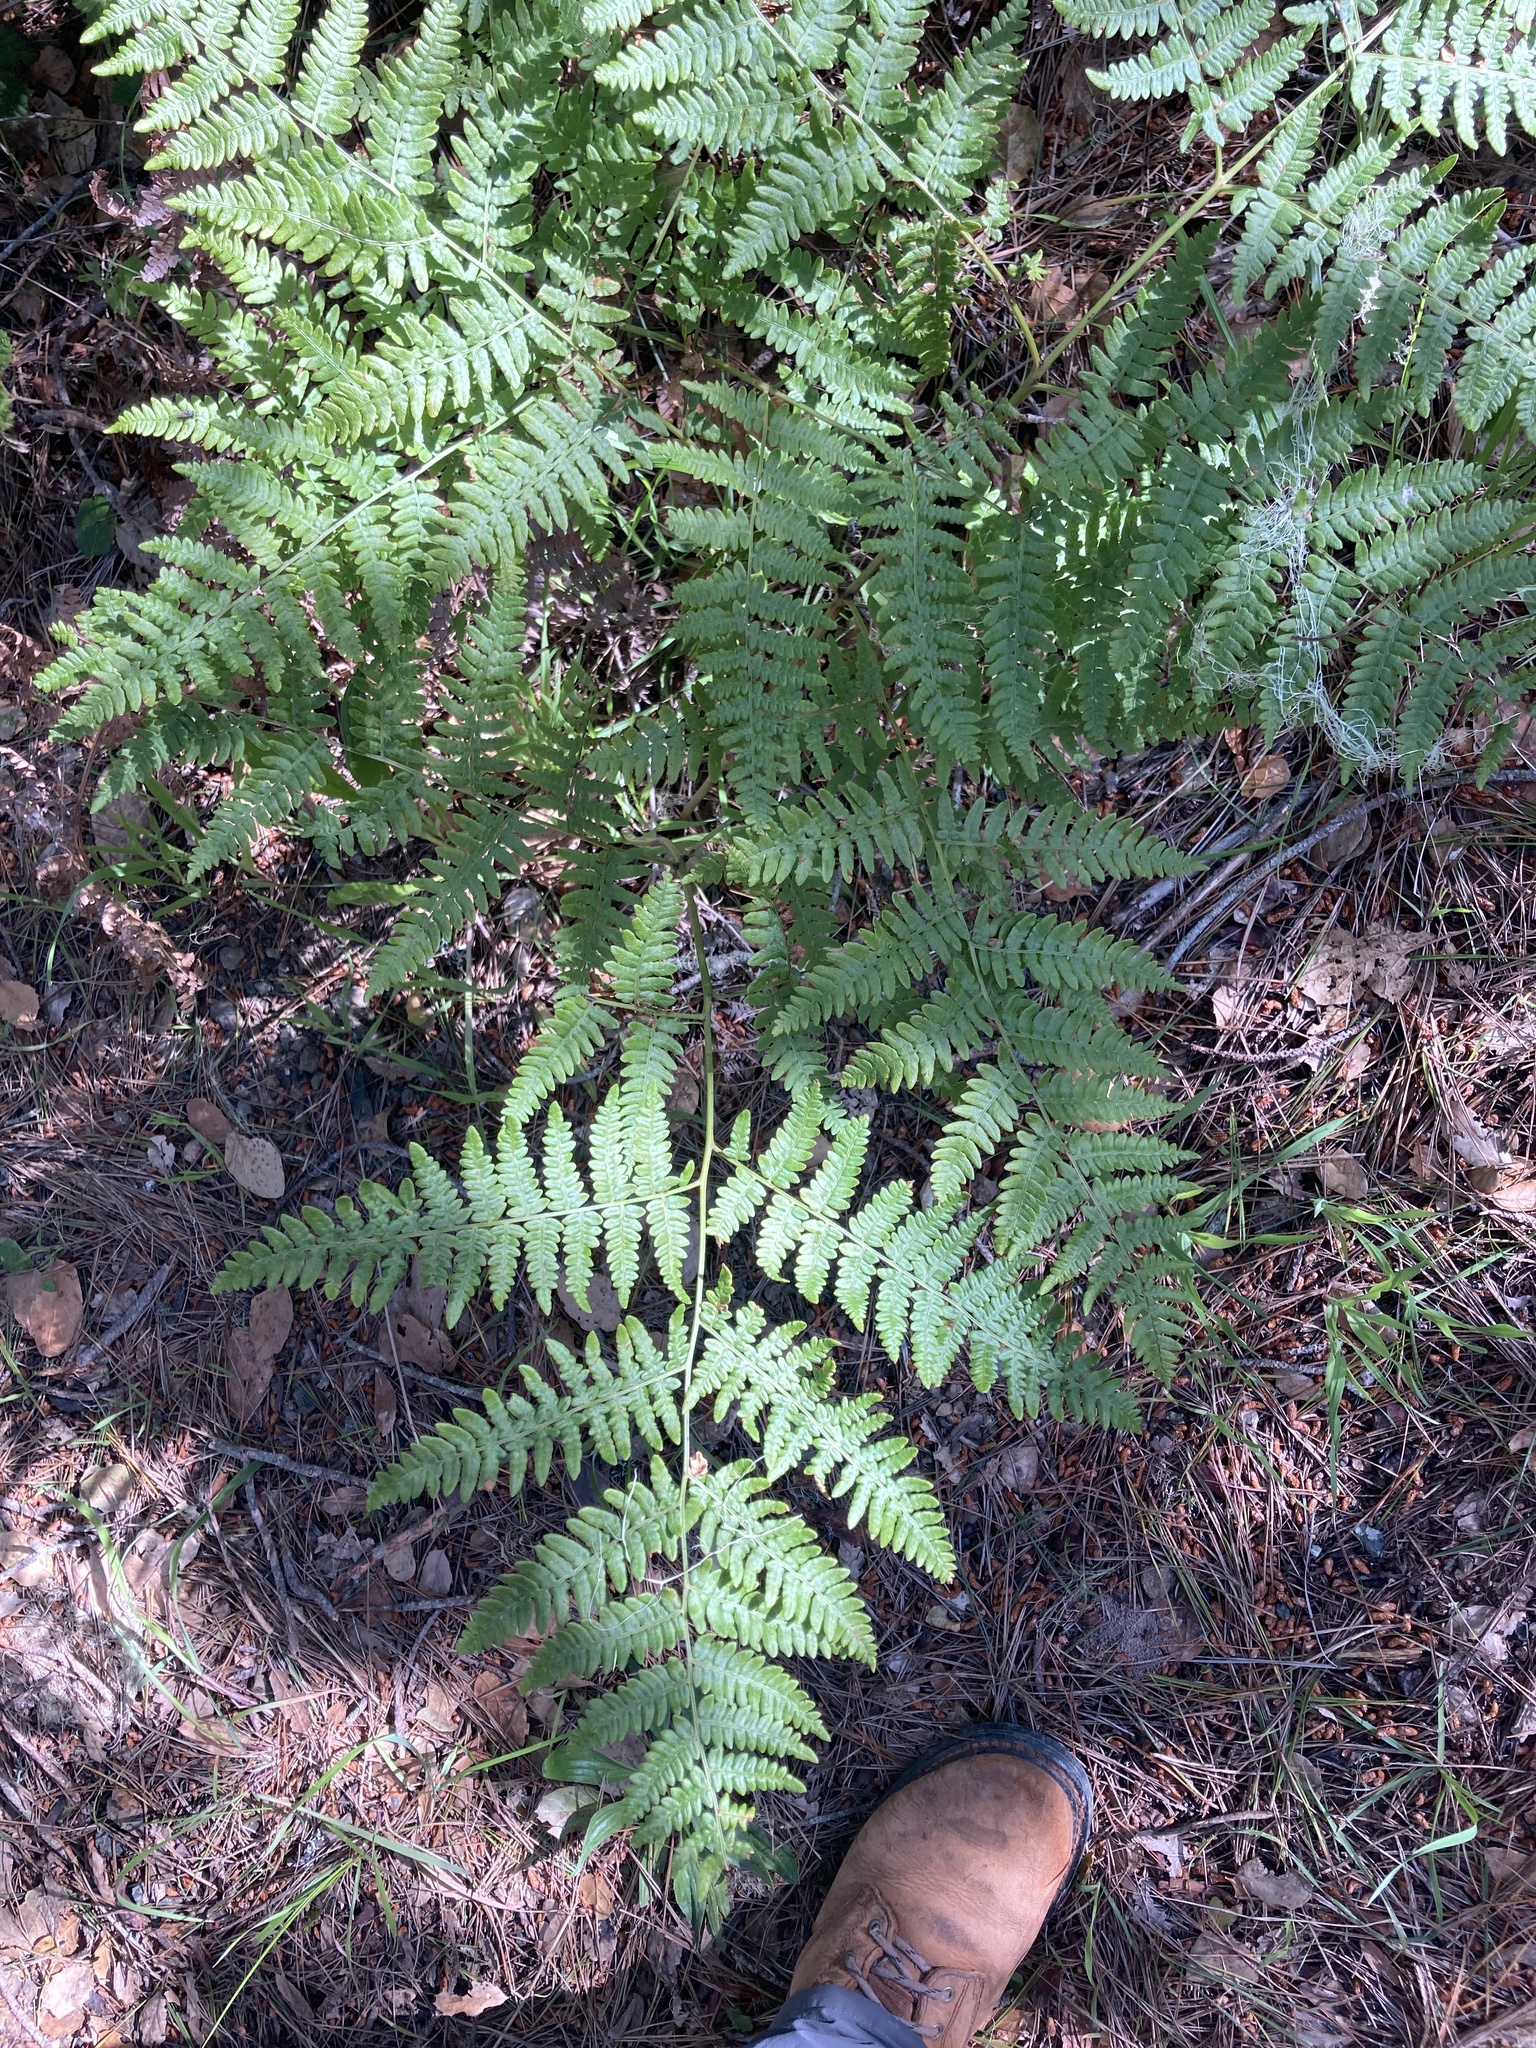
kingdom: Plantae
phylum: Tracheophyta
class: Polypodiopsida
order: Polypodiales
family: Dennstaedtiaceae
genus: Pteridium
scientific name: Pteridium aquilinum
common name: Bracken
